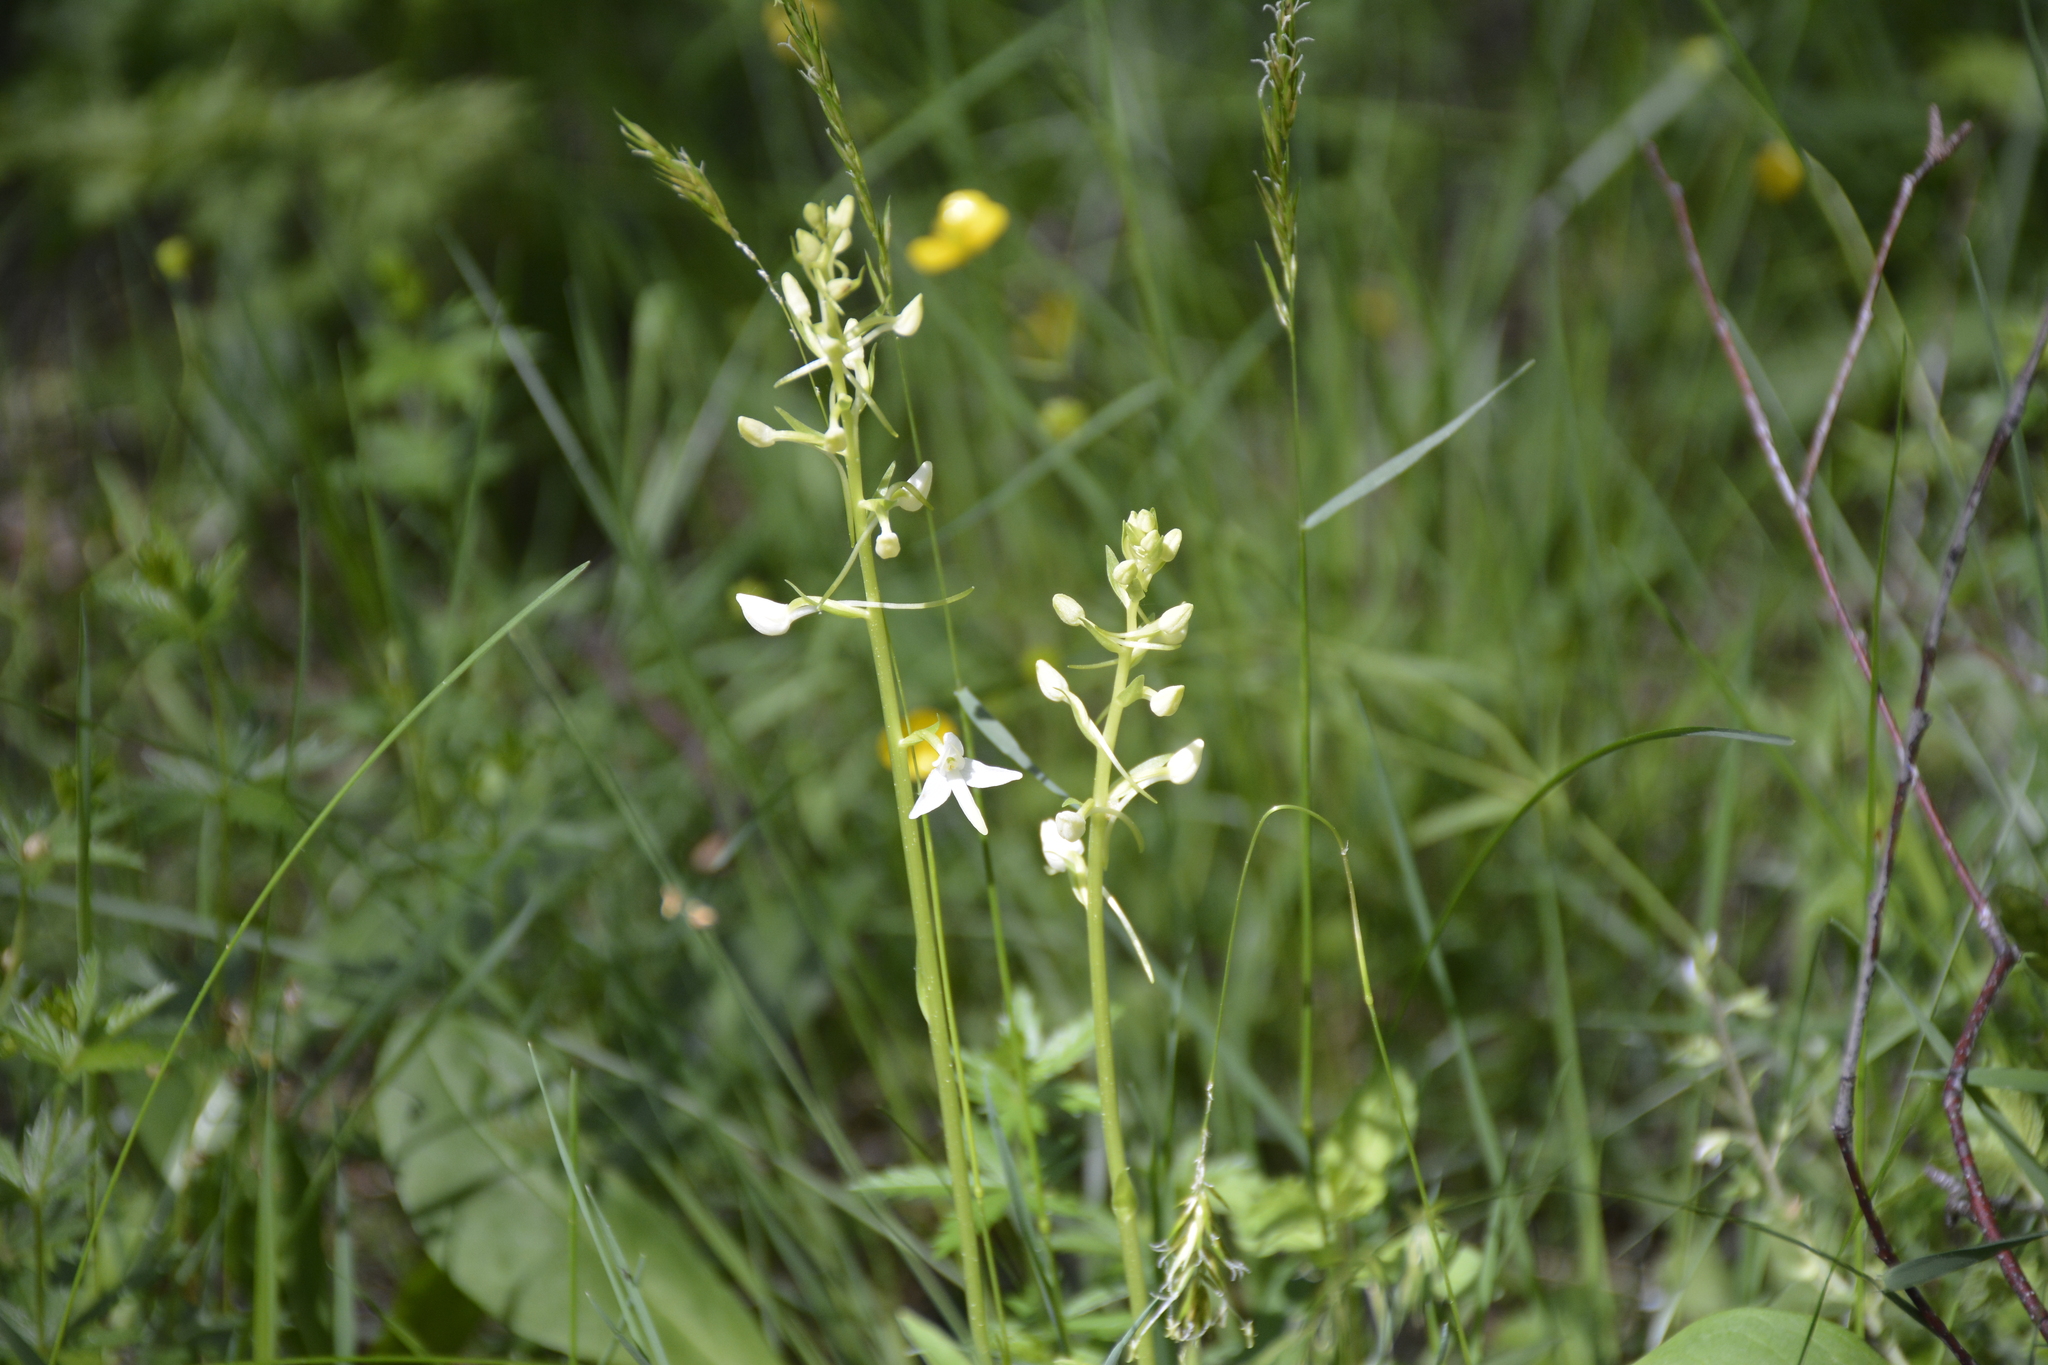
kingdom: Plantae
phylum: Tracheophyta
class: Liliopsida
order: Asparagales
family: Orchidaceae
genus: Platanthera
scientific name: Platanthera bifolia
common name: Lesser butterfly-orchid
